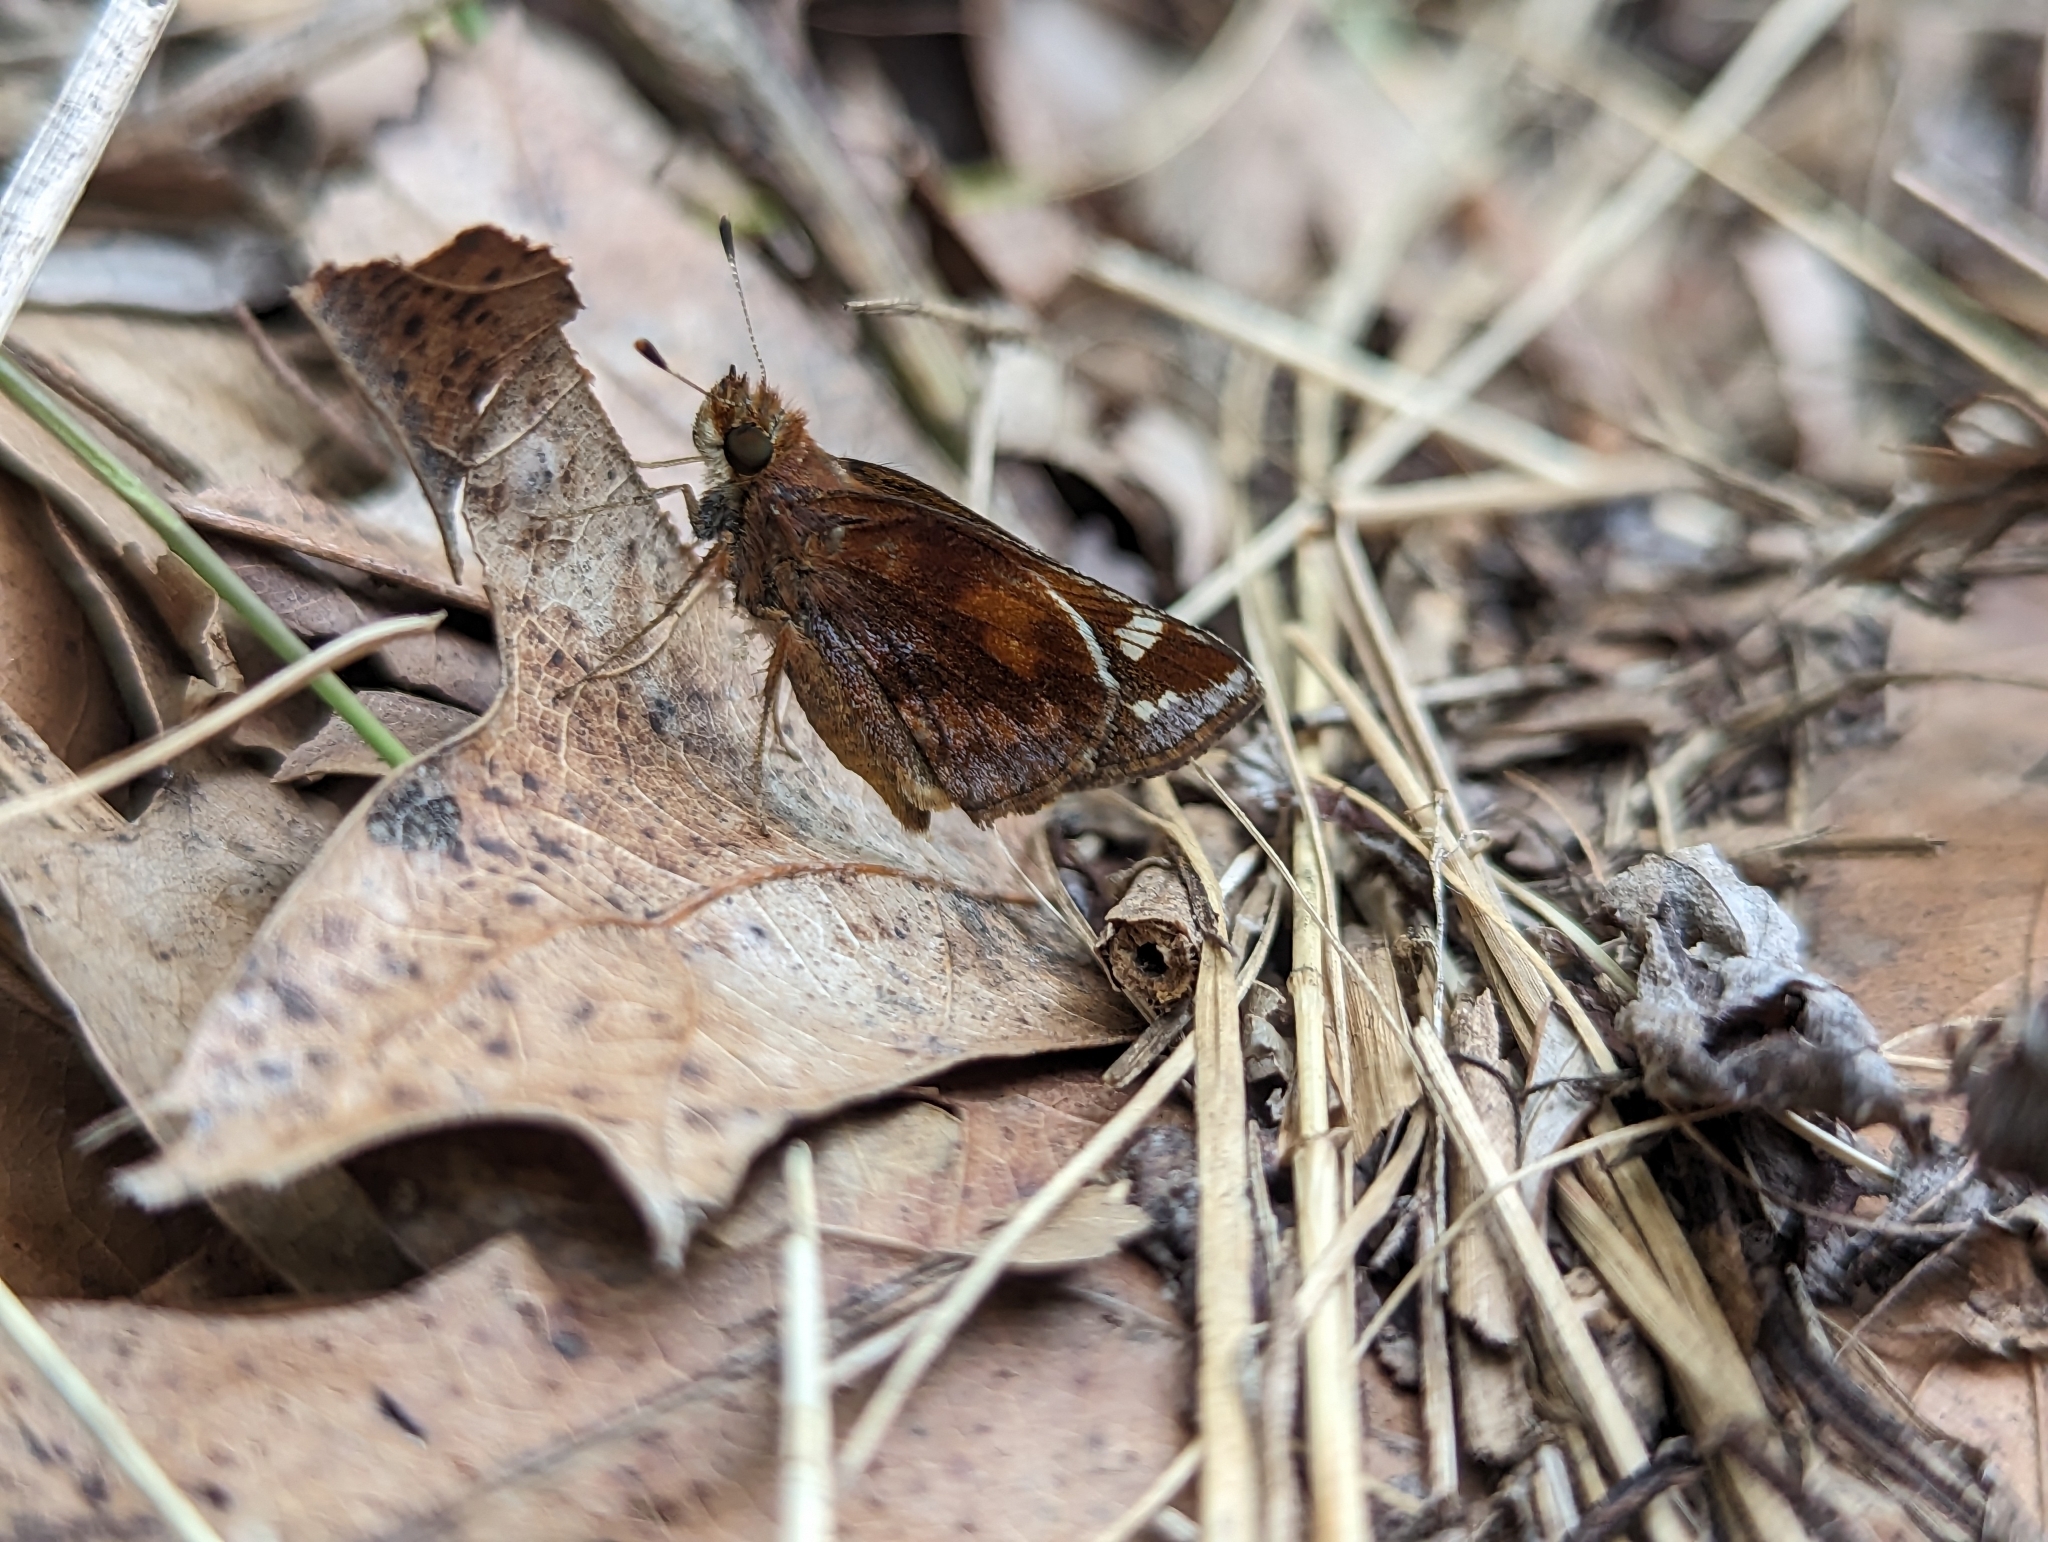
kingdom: Animalia
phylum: Arthropoda
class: Insecta
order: Lepidoptera
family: Hesperiidae
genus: Lon
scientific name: Lon zabulon
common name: Zabulon skipper
